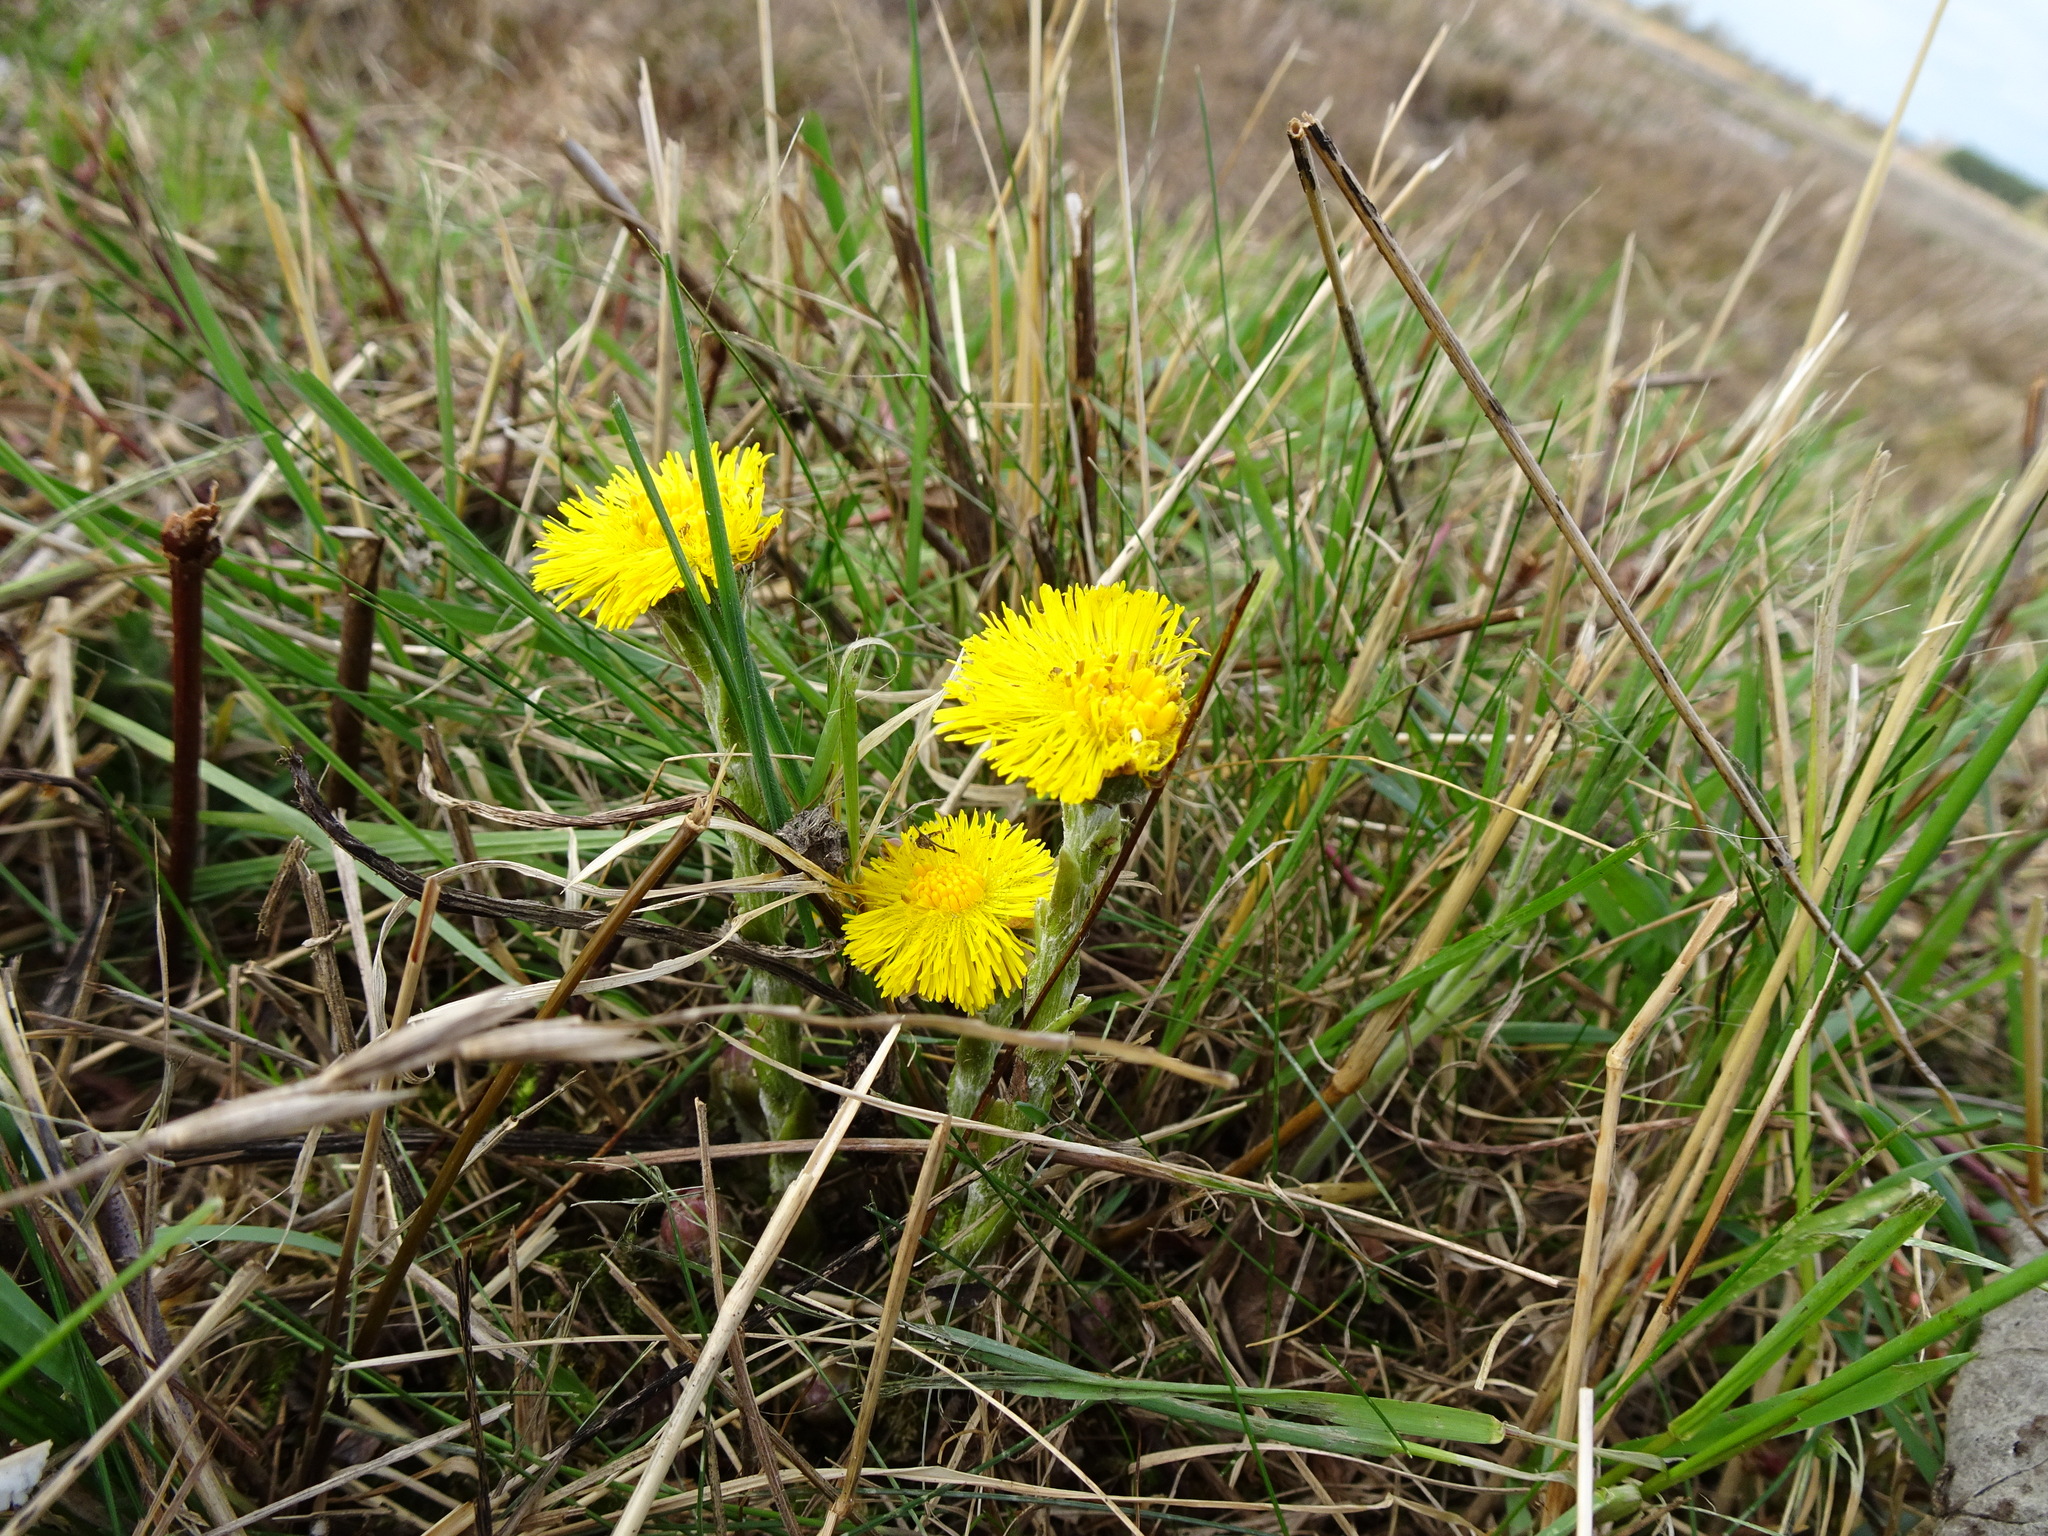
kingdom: Plantae
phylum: Tracheophyta
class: Magnoliopsida
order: Asterales
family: Asteraceae
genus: Tussilago
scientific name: Tussilago farfara
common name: Coltsfoot
